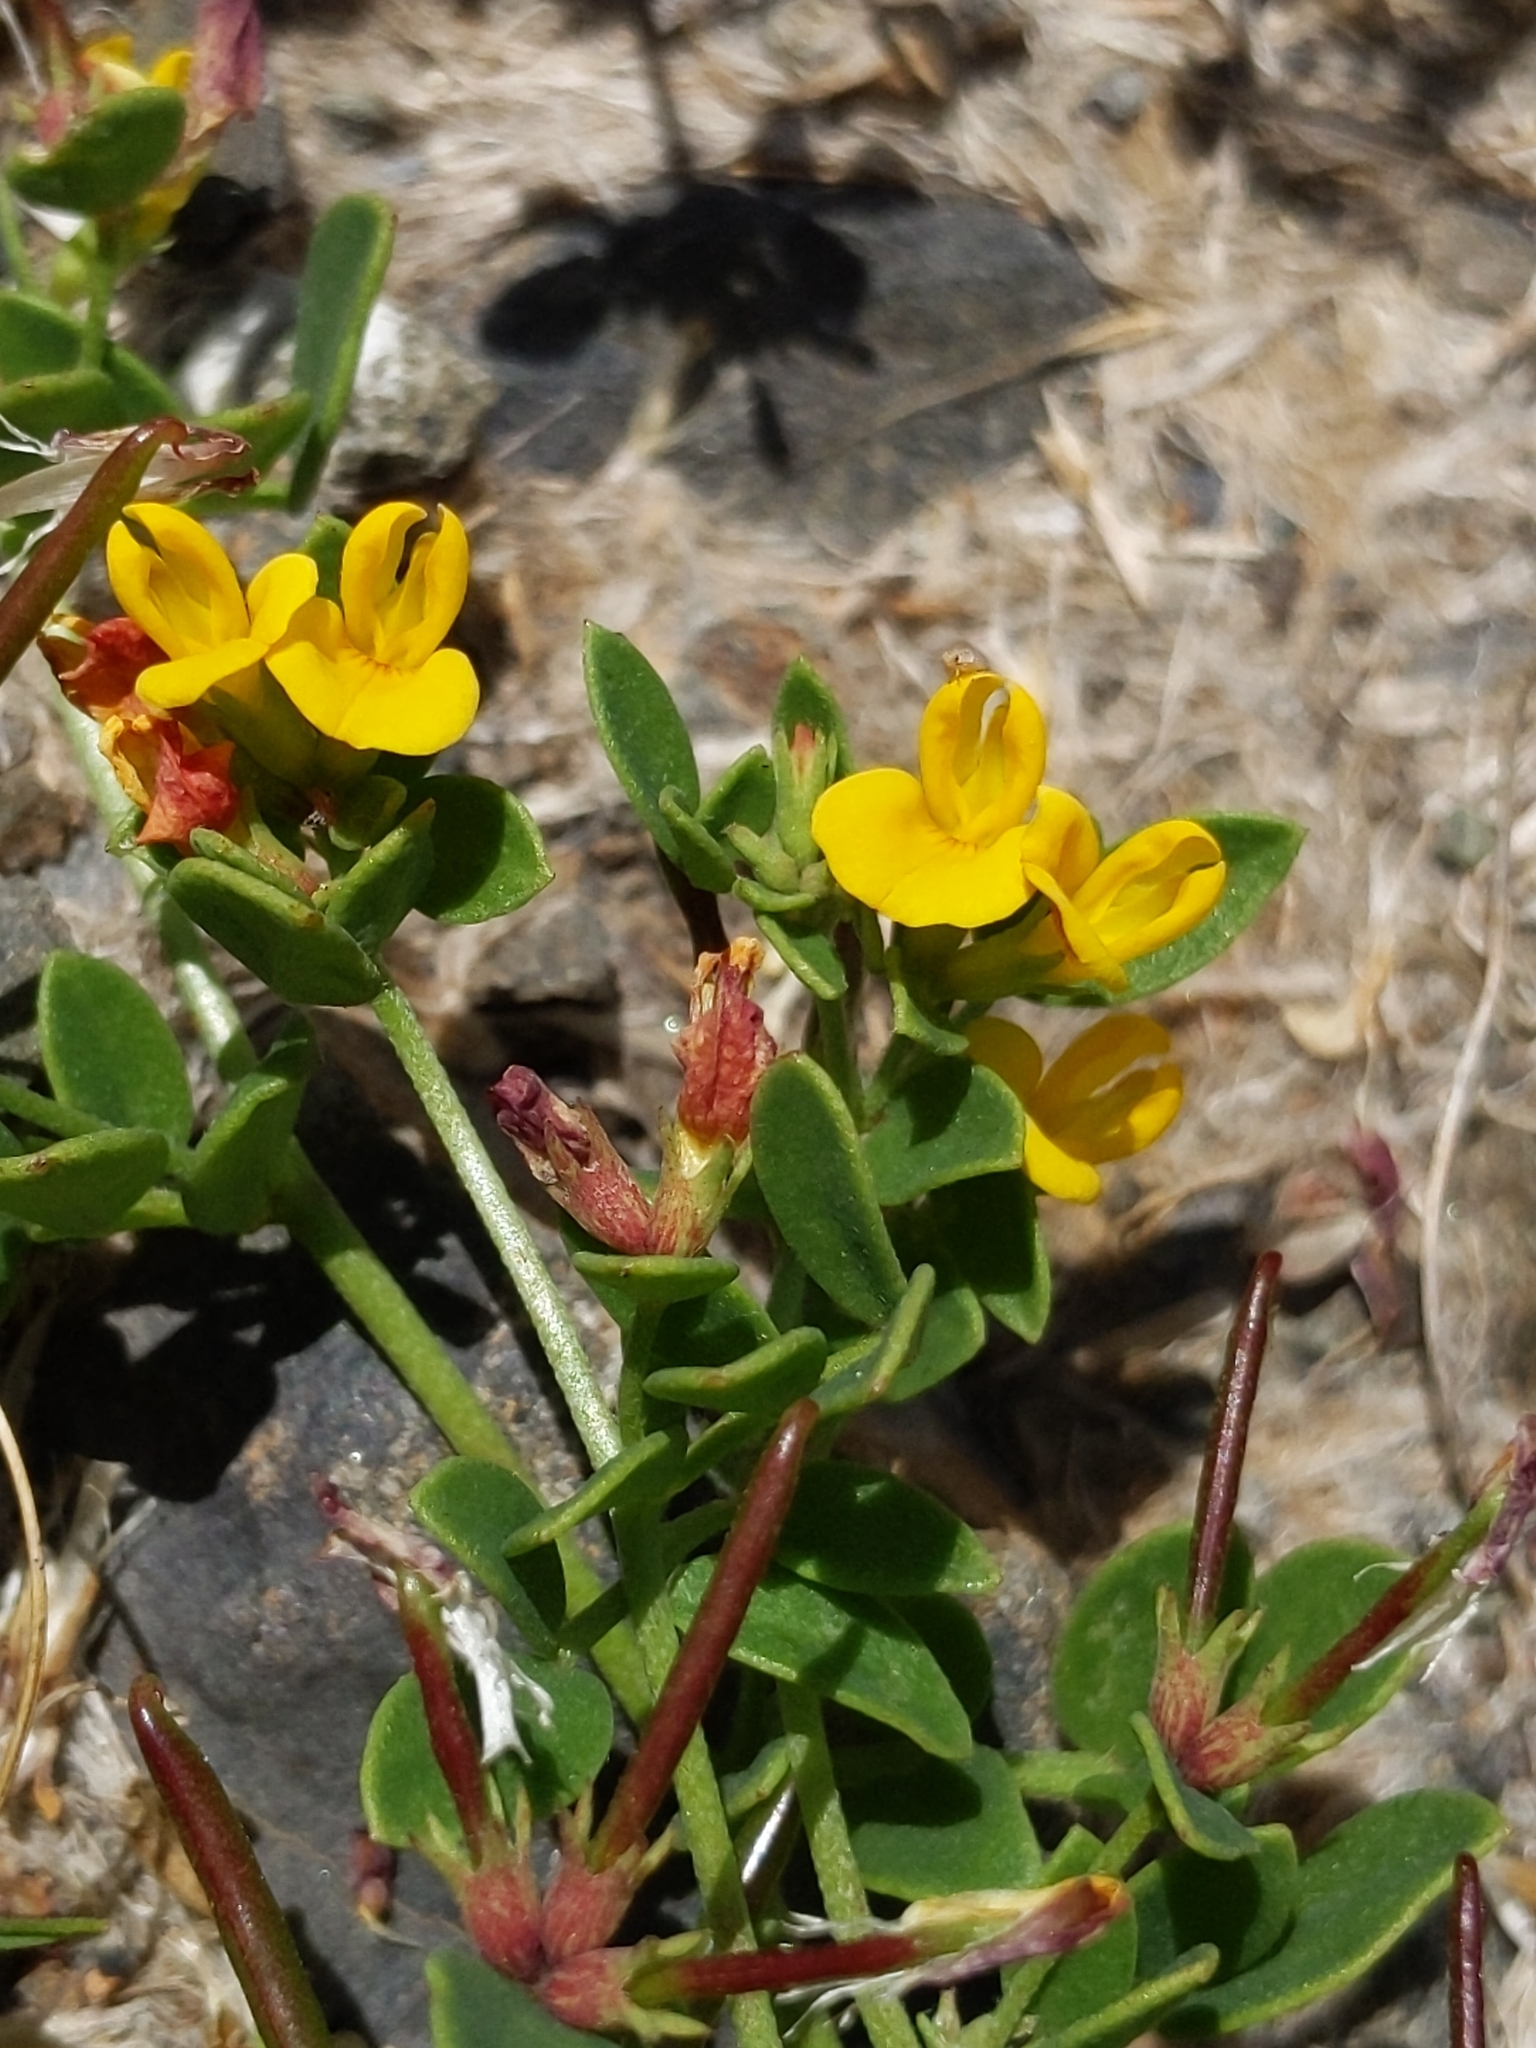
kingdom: Plantae
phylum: Tracheophyta
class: Magnoliopsida
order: Fabales
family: Fabaceae
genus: Acmispon
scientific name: Acmispon maritimus
